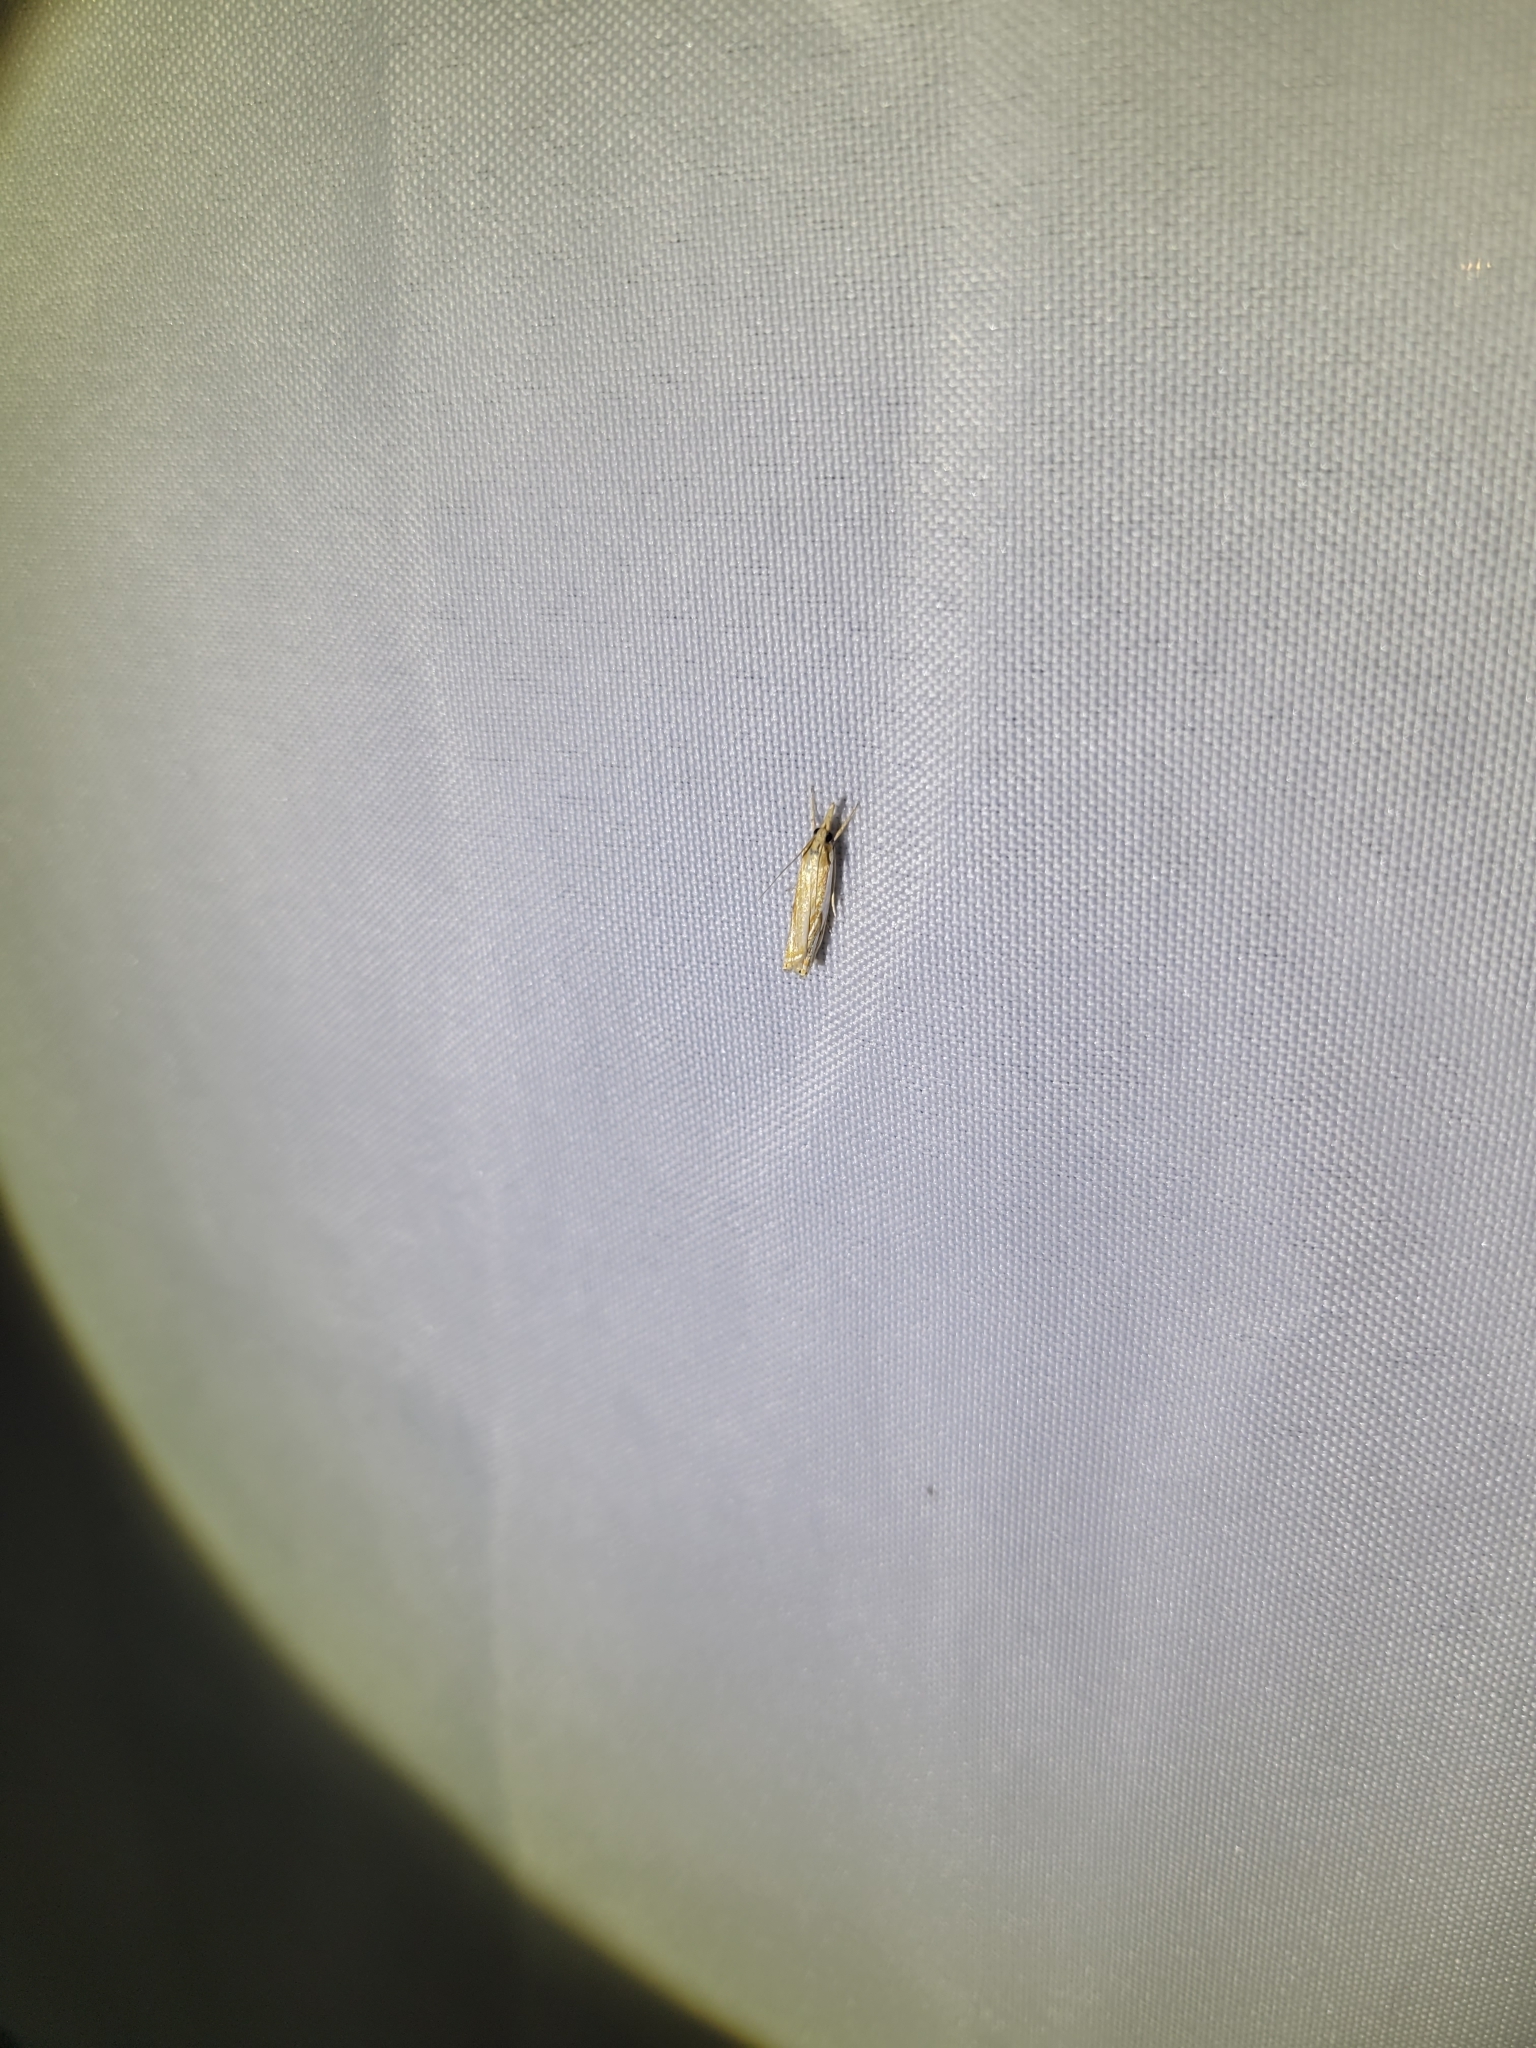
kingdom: Animalia
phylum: Arthropoda
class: Insecta
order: Lepidoptera
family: Crambidae
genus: Crambus
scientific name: Crambus agitatellus
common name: Double-banded grass-veneer
